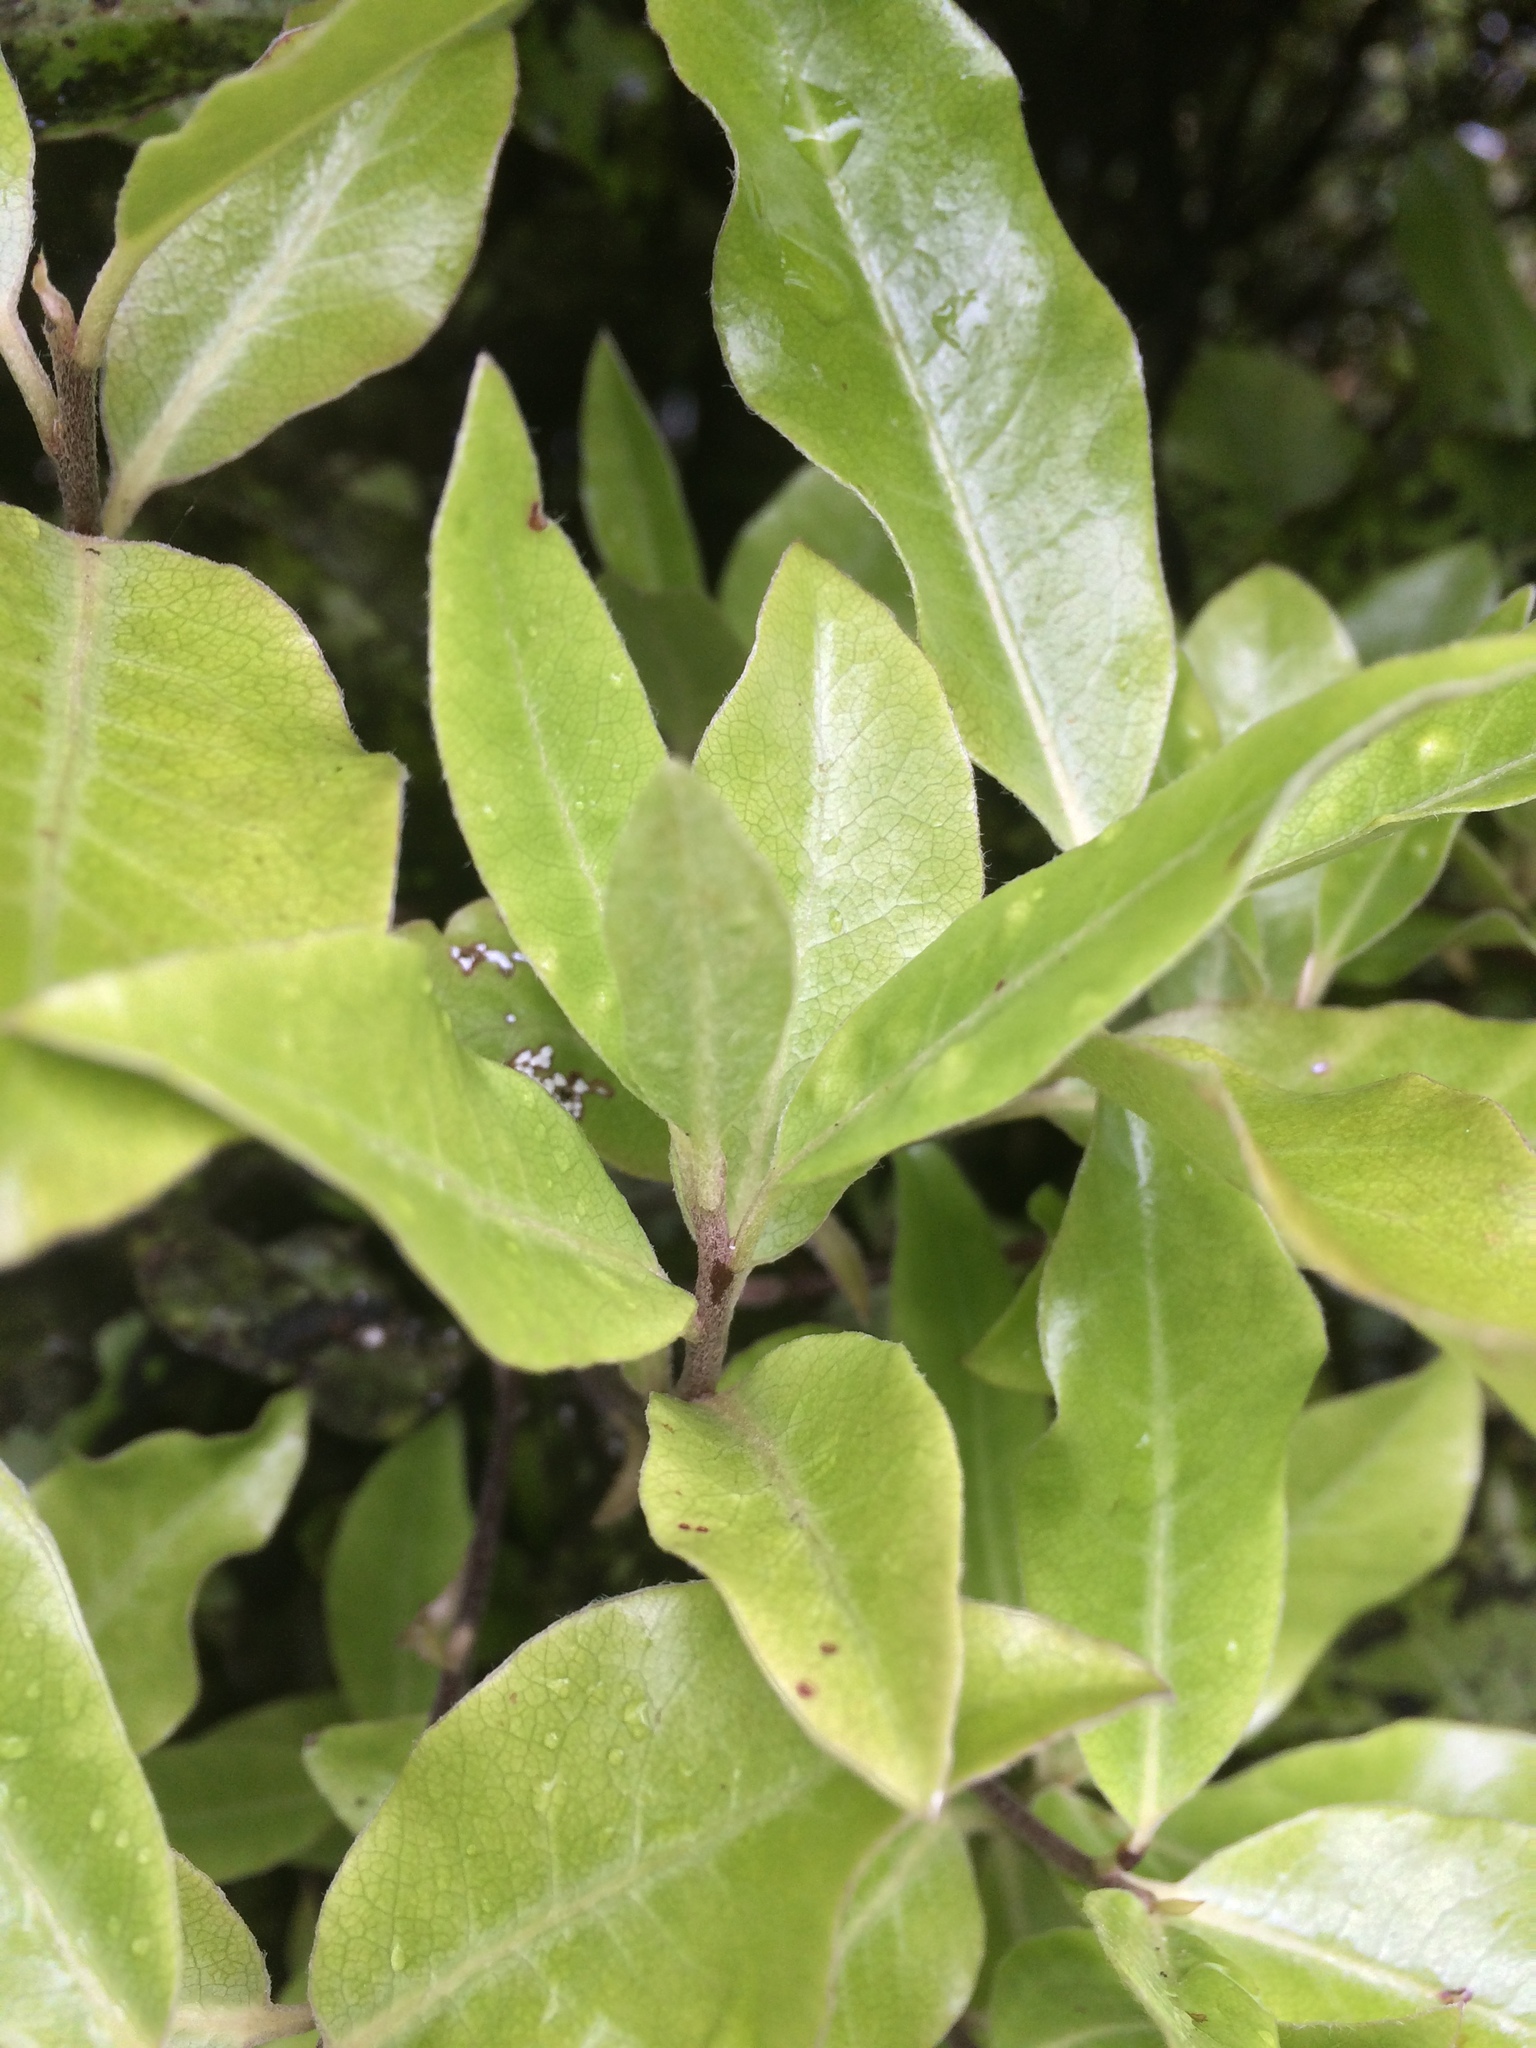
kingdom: Plantae
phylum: Tracheophyta
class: Magnoliopsida
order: Apiales
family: Pittosporaceae
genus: Pittosporum
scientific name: Pittosporum tenuifolium
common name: Kohuhu
